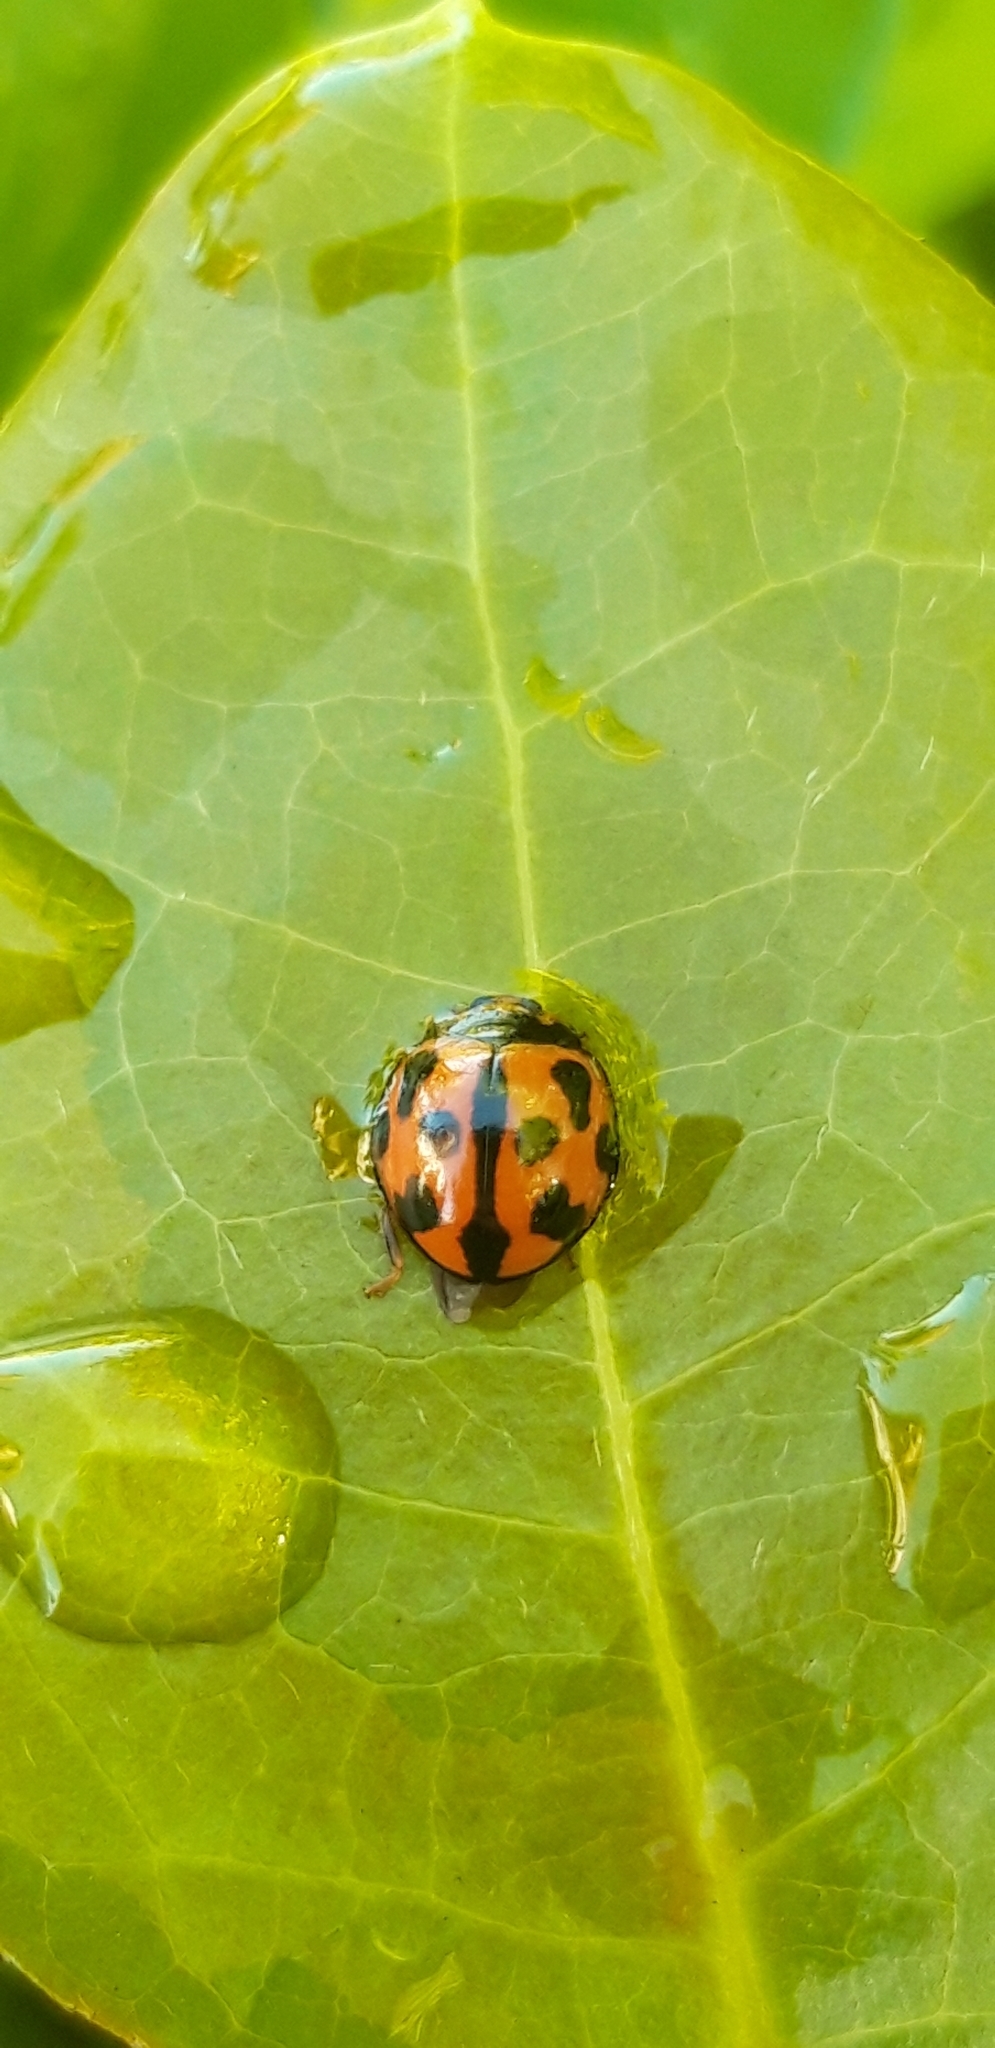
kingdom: Animalia
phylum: Arthropoda
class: Insecta
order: Coleoptera
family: Coccinellidae
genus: Coelophora
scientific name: Coelophora inaequalis
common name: Common australian lady beetle
